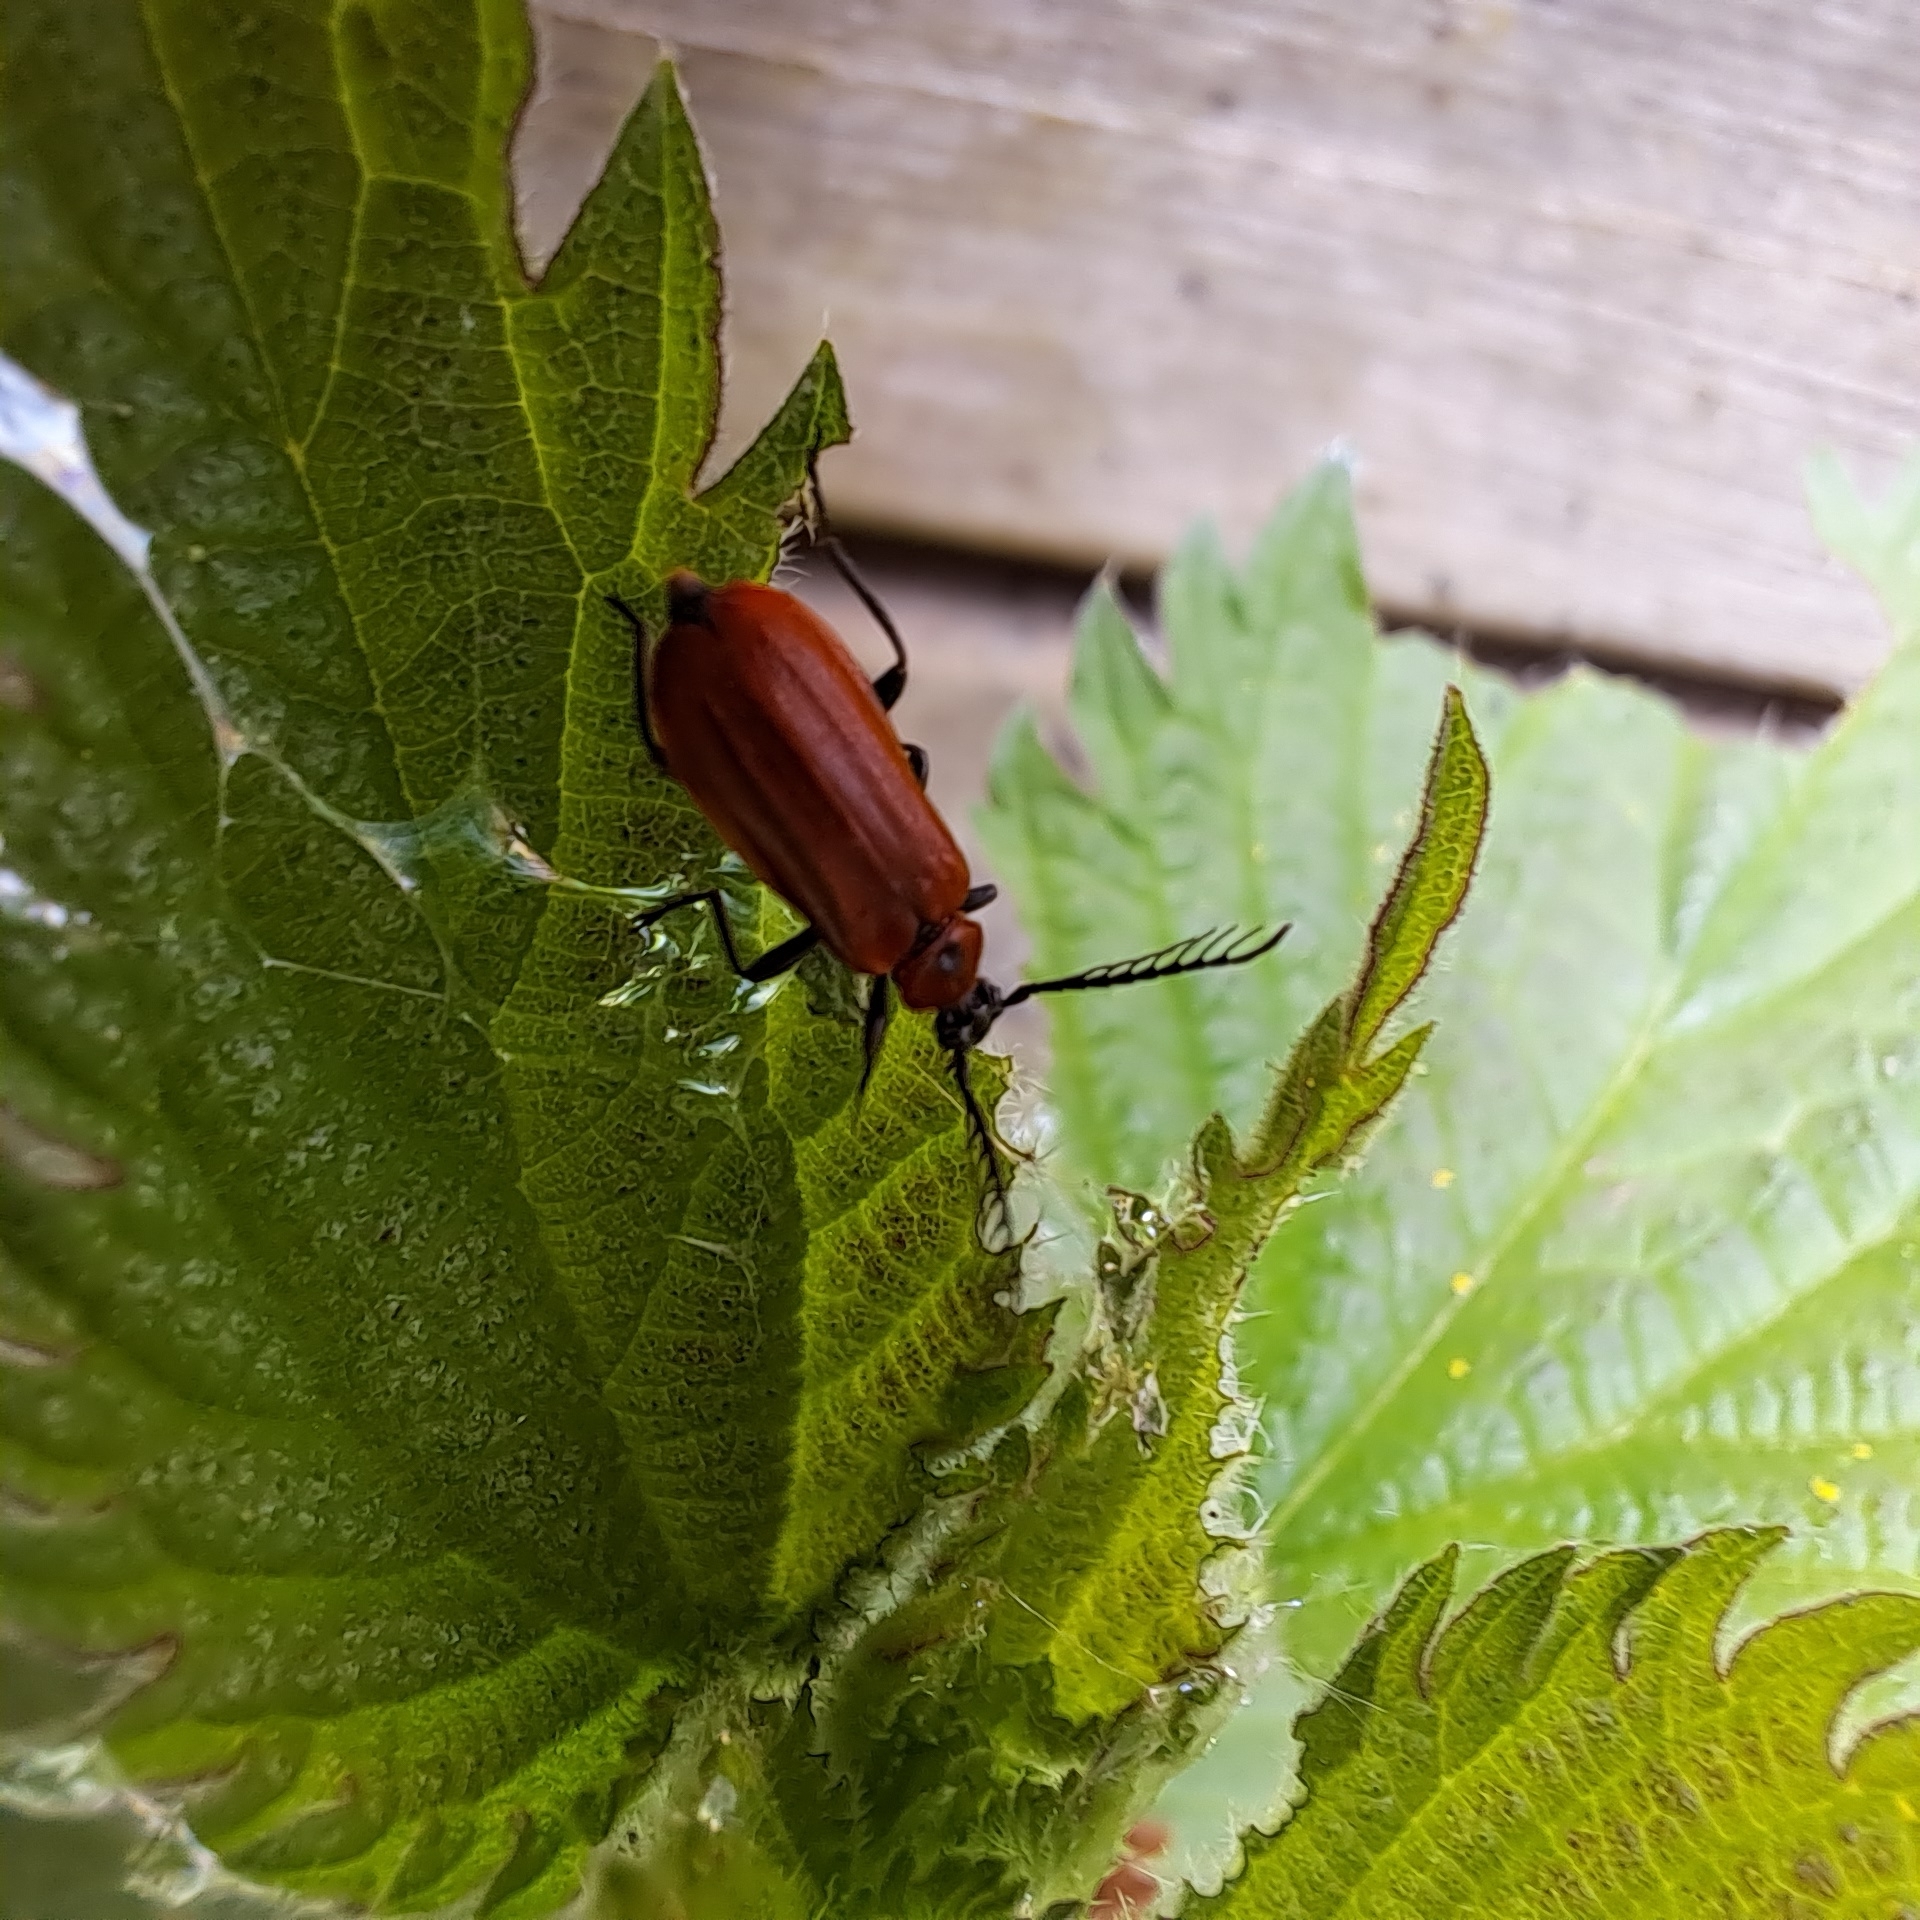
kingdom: Animalia
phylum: Arthropoda
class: Insecta
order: Coleoptera
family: Pyrochroidae
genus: Schizotus
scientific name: Schizotus pectinicornis
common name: Scarce cardinal beetle
